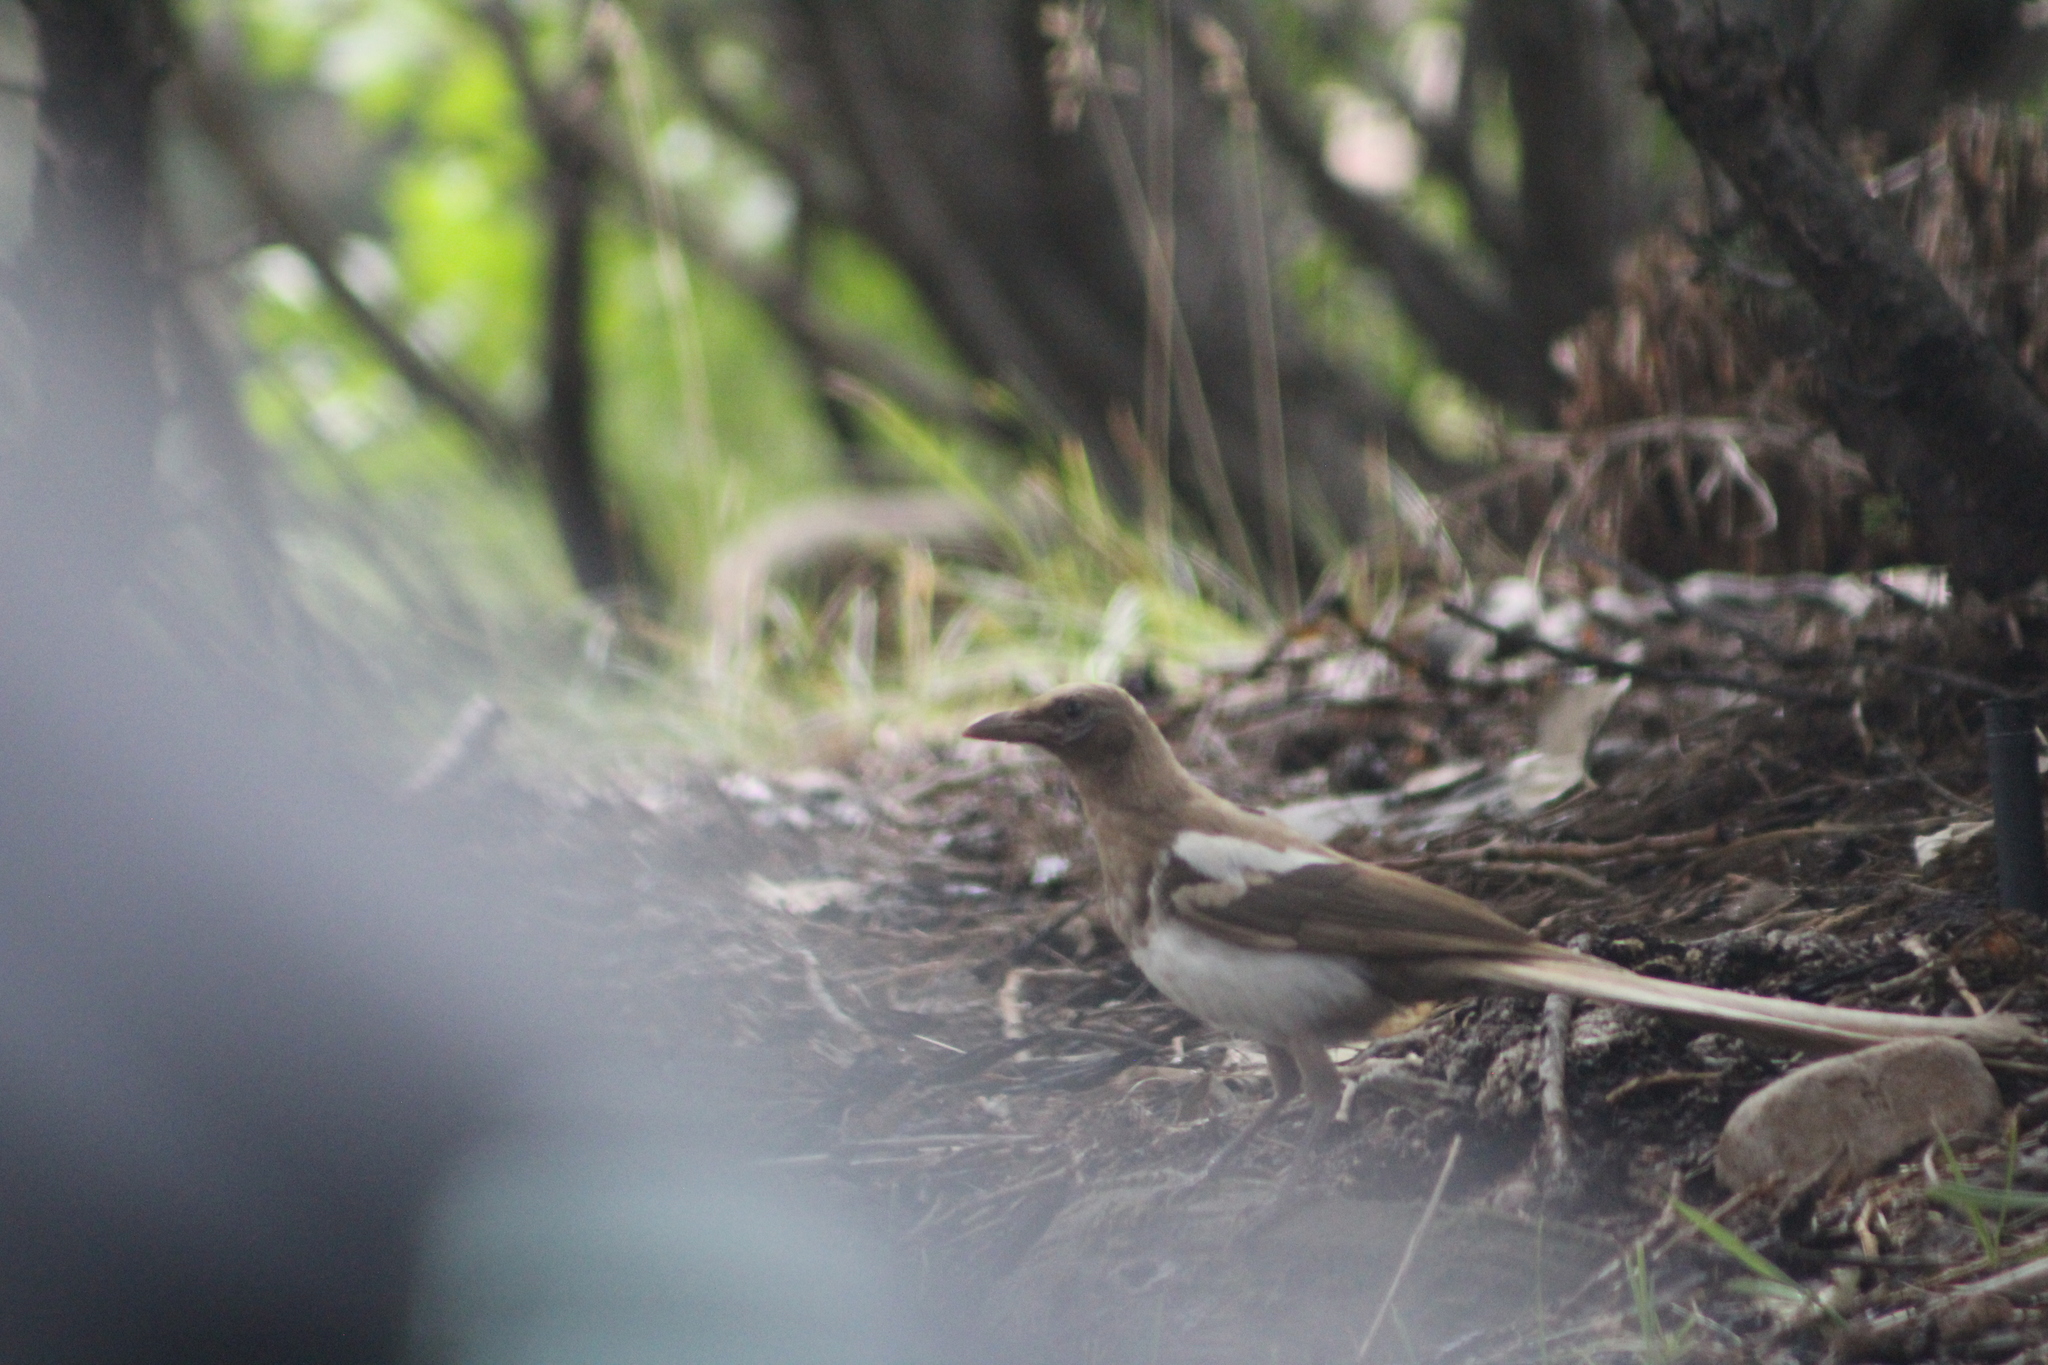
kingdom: Animalia
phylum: Chordata
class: Aves
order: Passeriformes
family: Corvidae
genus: Pica
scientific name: Pica hudsonia
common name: Black-billed magpie
